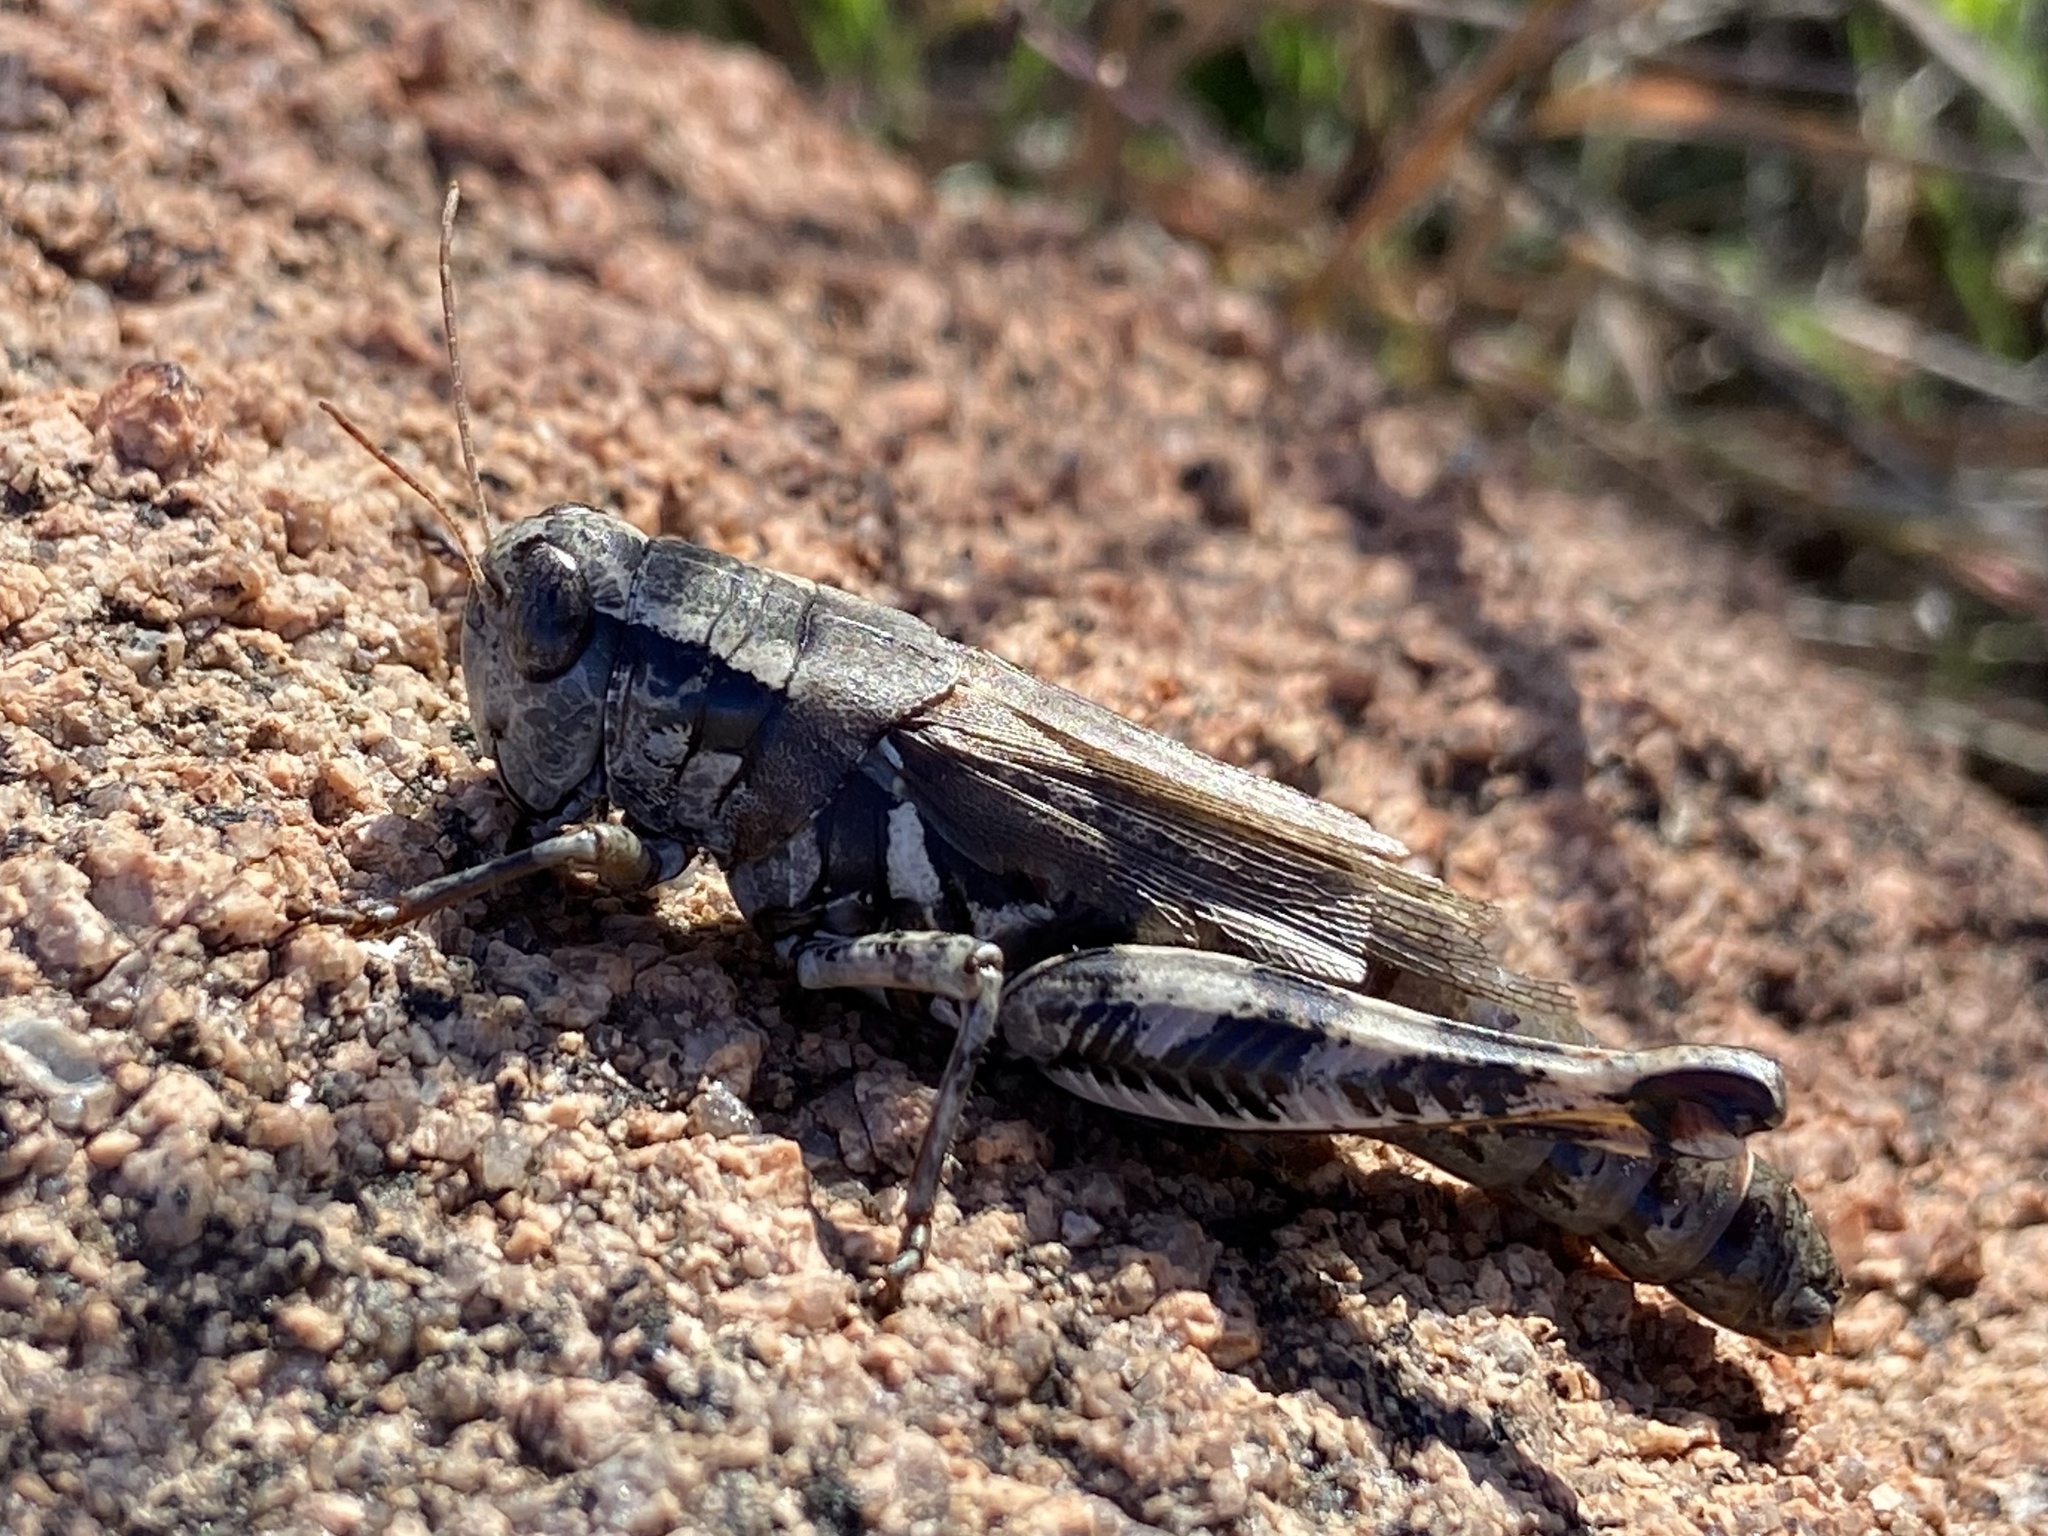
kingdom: Animalia
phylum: Arthropoda
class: Insecta
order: Orthoptera
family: Acrididae
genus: Melanoplus
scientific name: Melanoplus ponderosus
